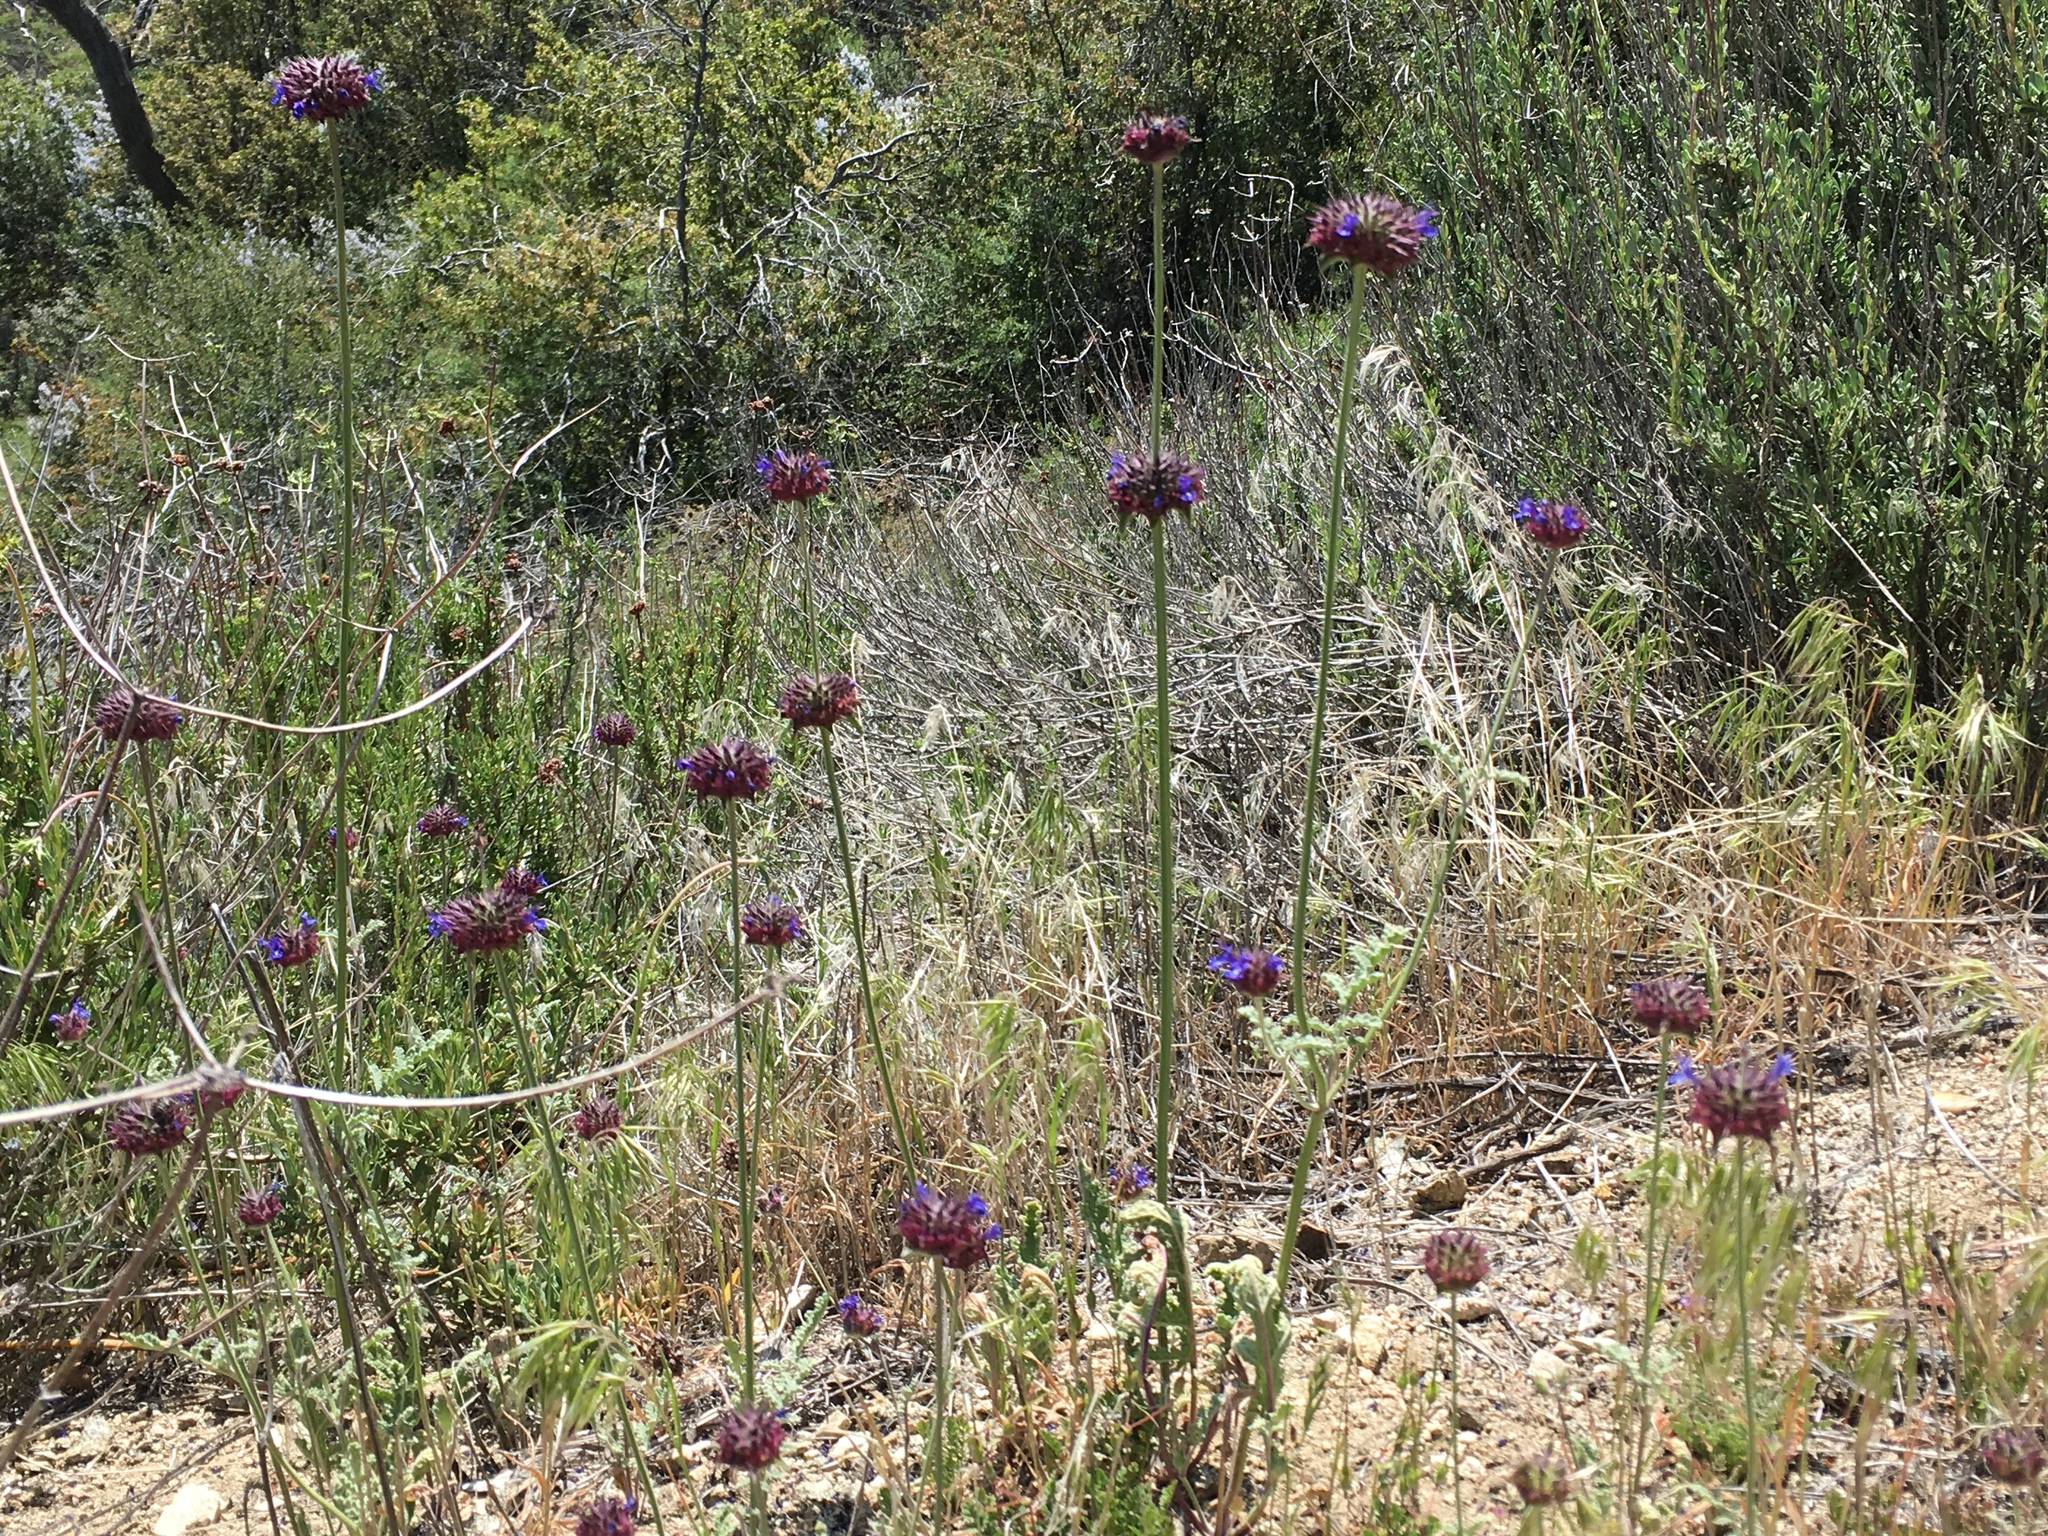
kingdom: Plantae
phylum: Tracheophyta
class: Magnoliopsida
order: Lamiales
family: Lamiaceae
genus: Salvia
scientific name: Salvia columbariae
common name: Chia
